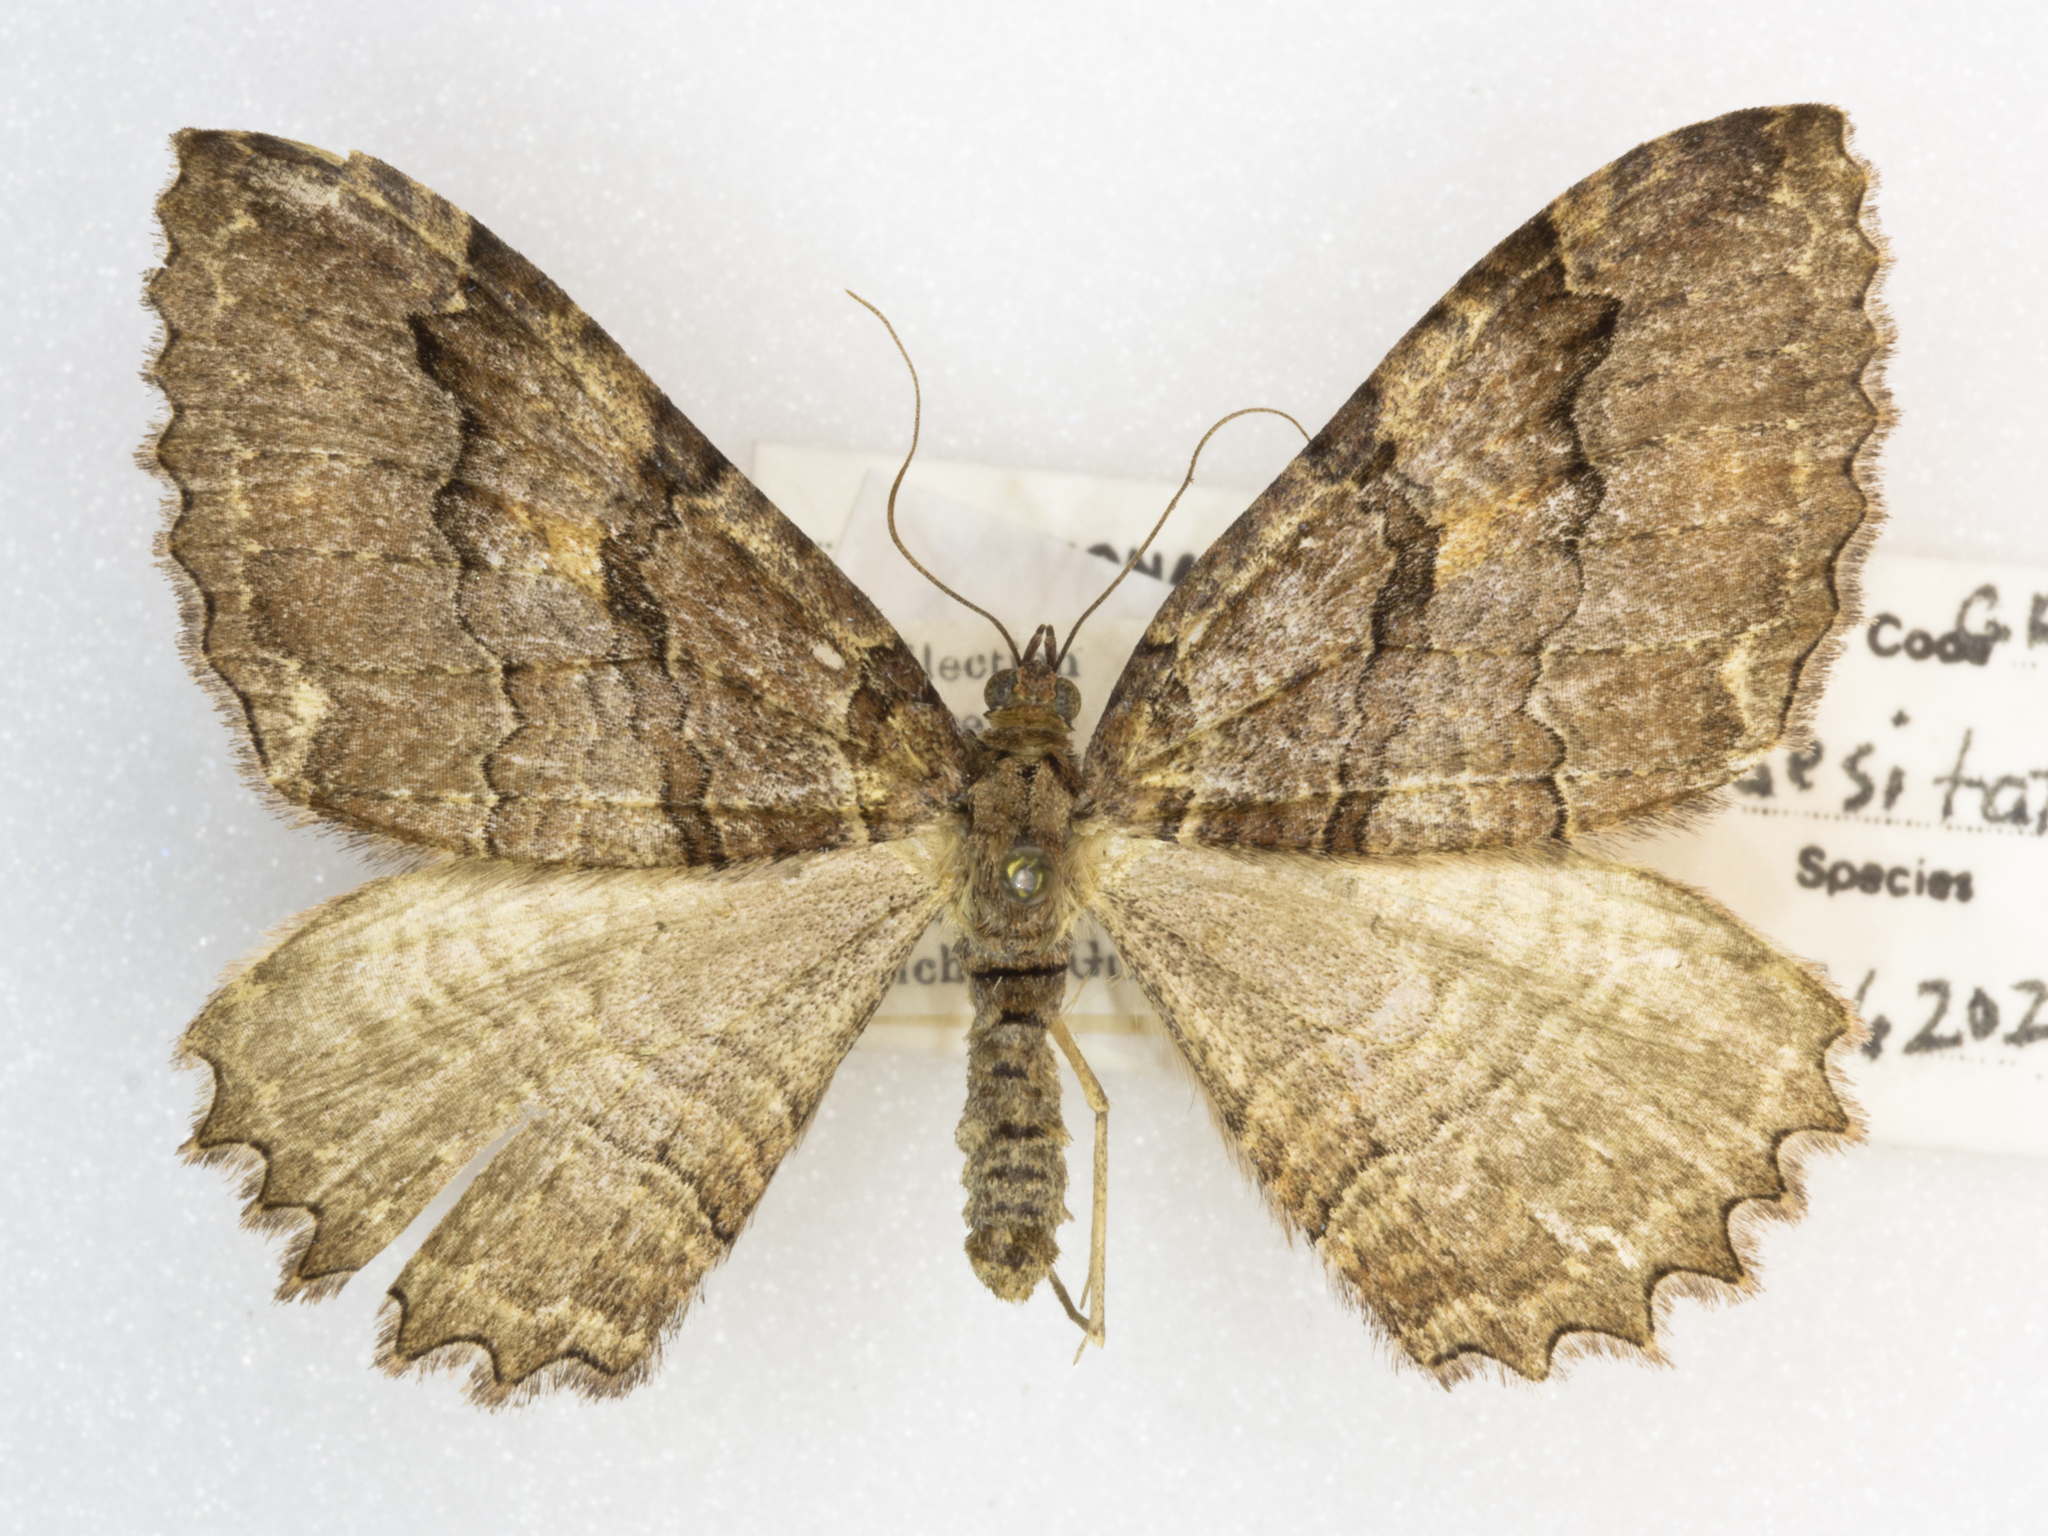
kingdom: Animalia
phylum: Arthropoda
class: Insecta
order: Lepidoptera
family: Geometridae
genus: Triphosa
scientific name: Triphosa haesitata
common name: Tissue moth
